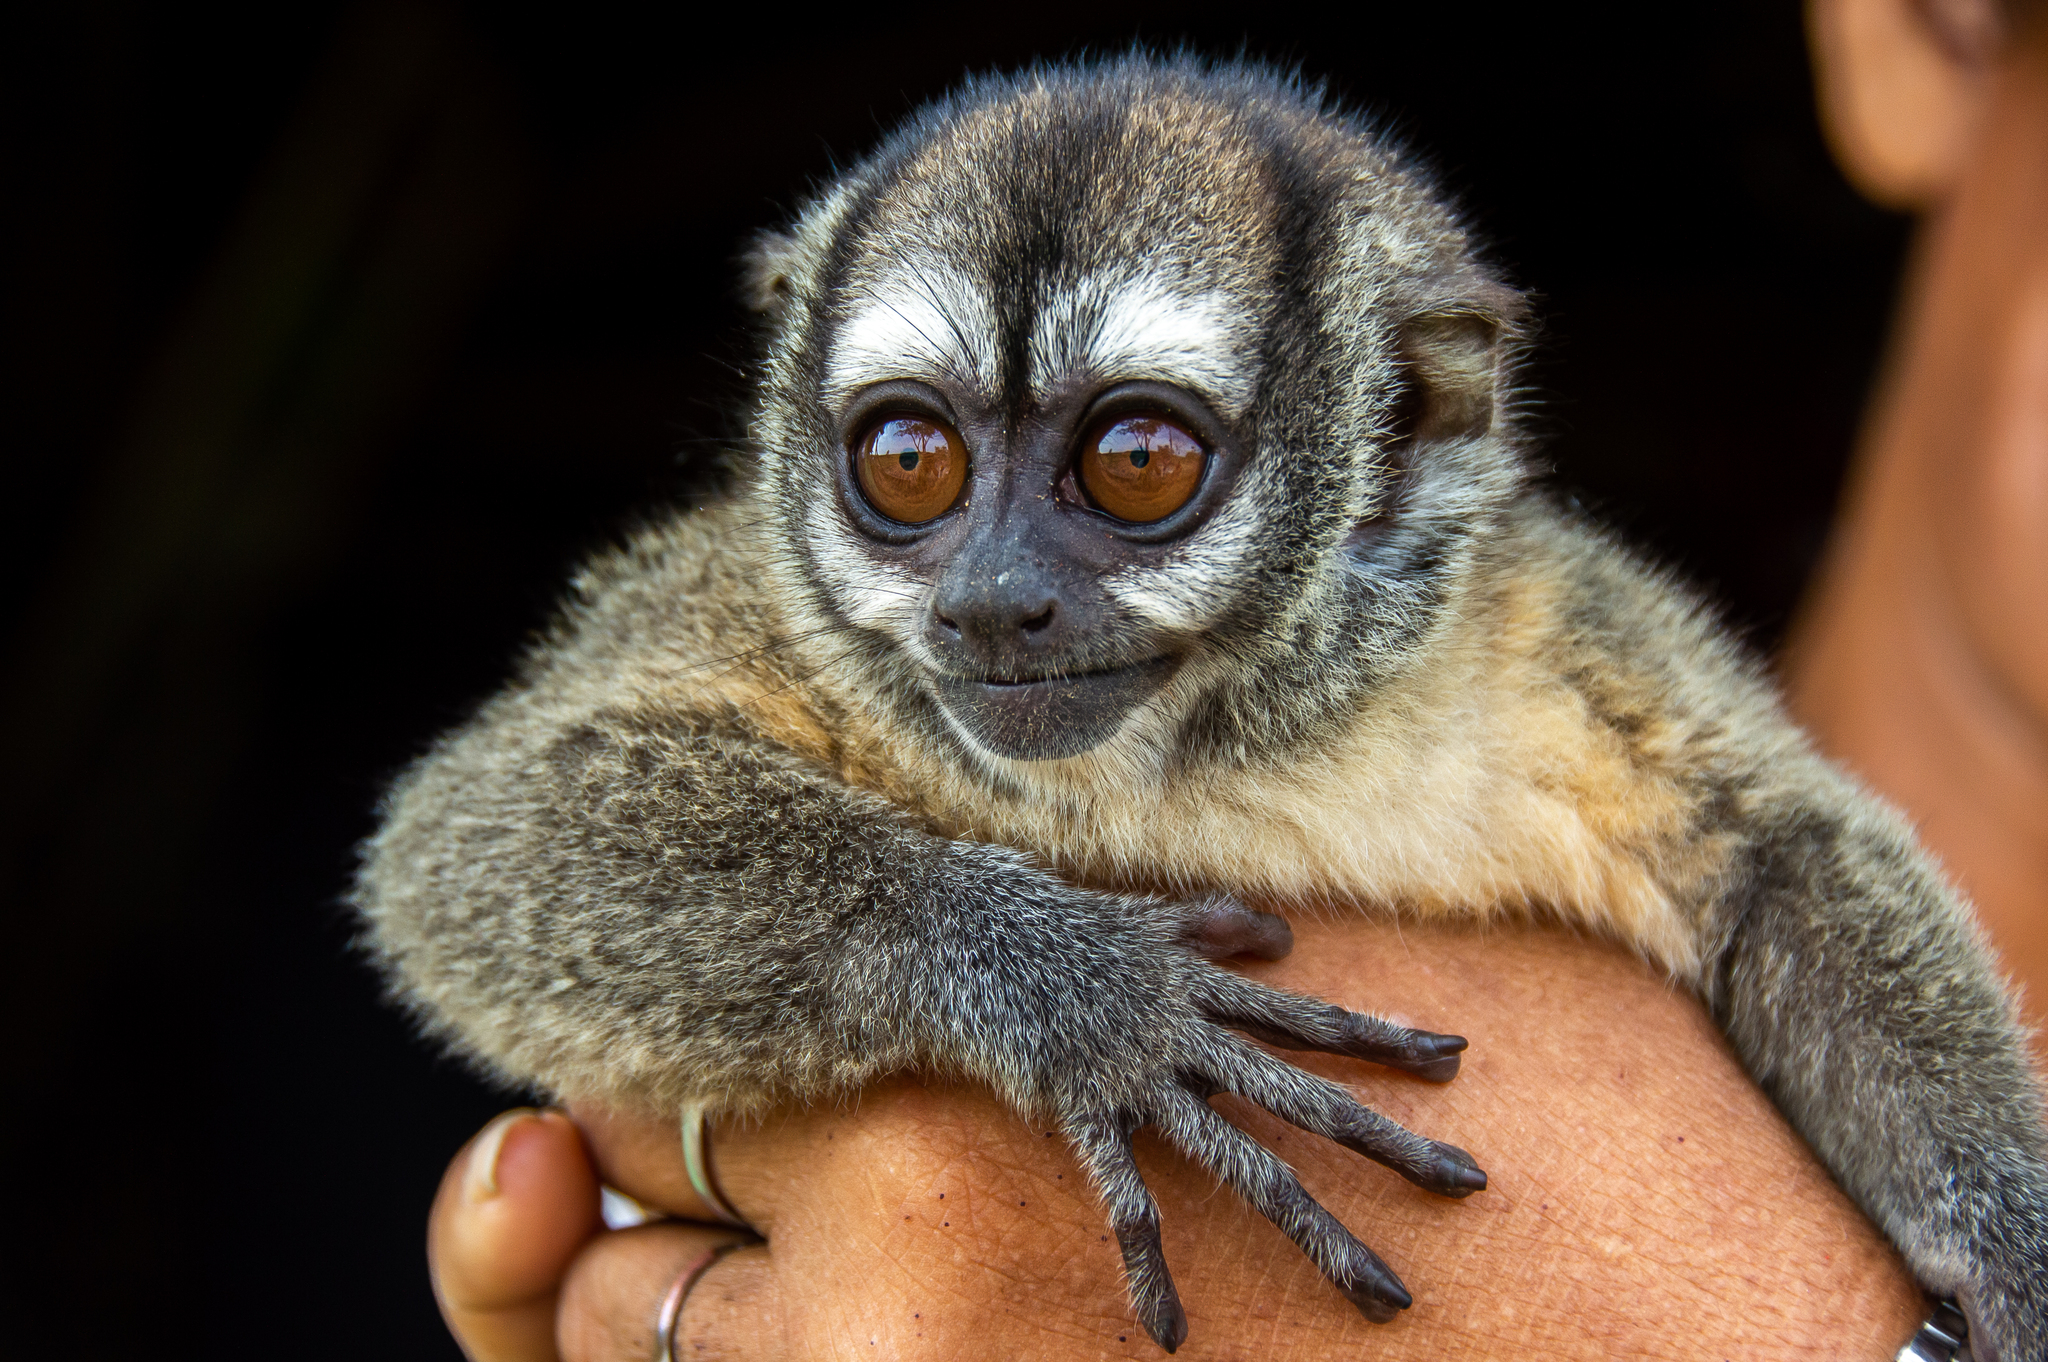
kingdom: Animalia
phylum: Chordata
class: Mammalia
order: Primates
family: Aotidae
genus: Aotus
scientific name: Aotus nancymai
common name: Ma's night monkey
